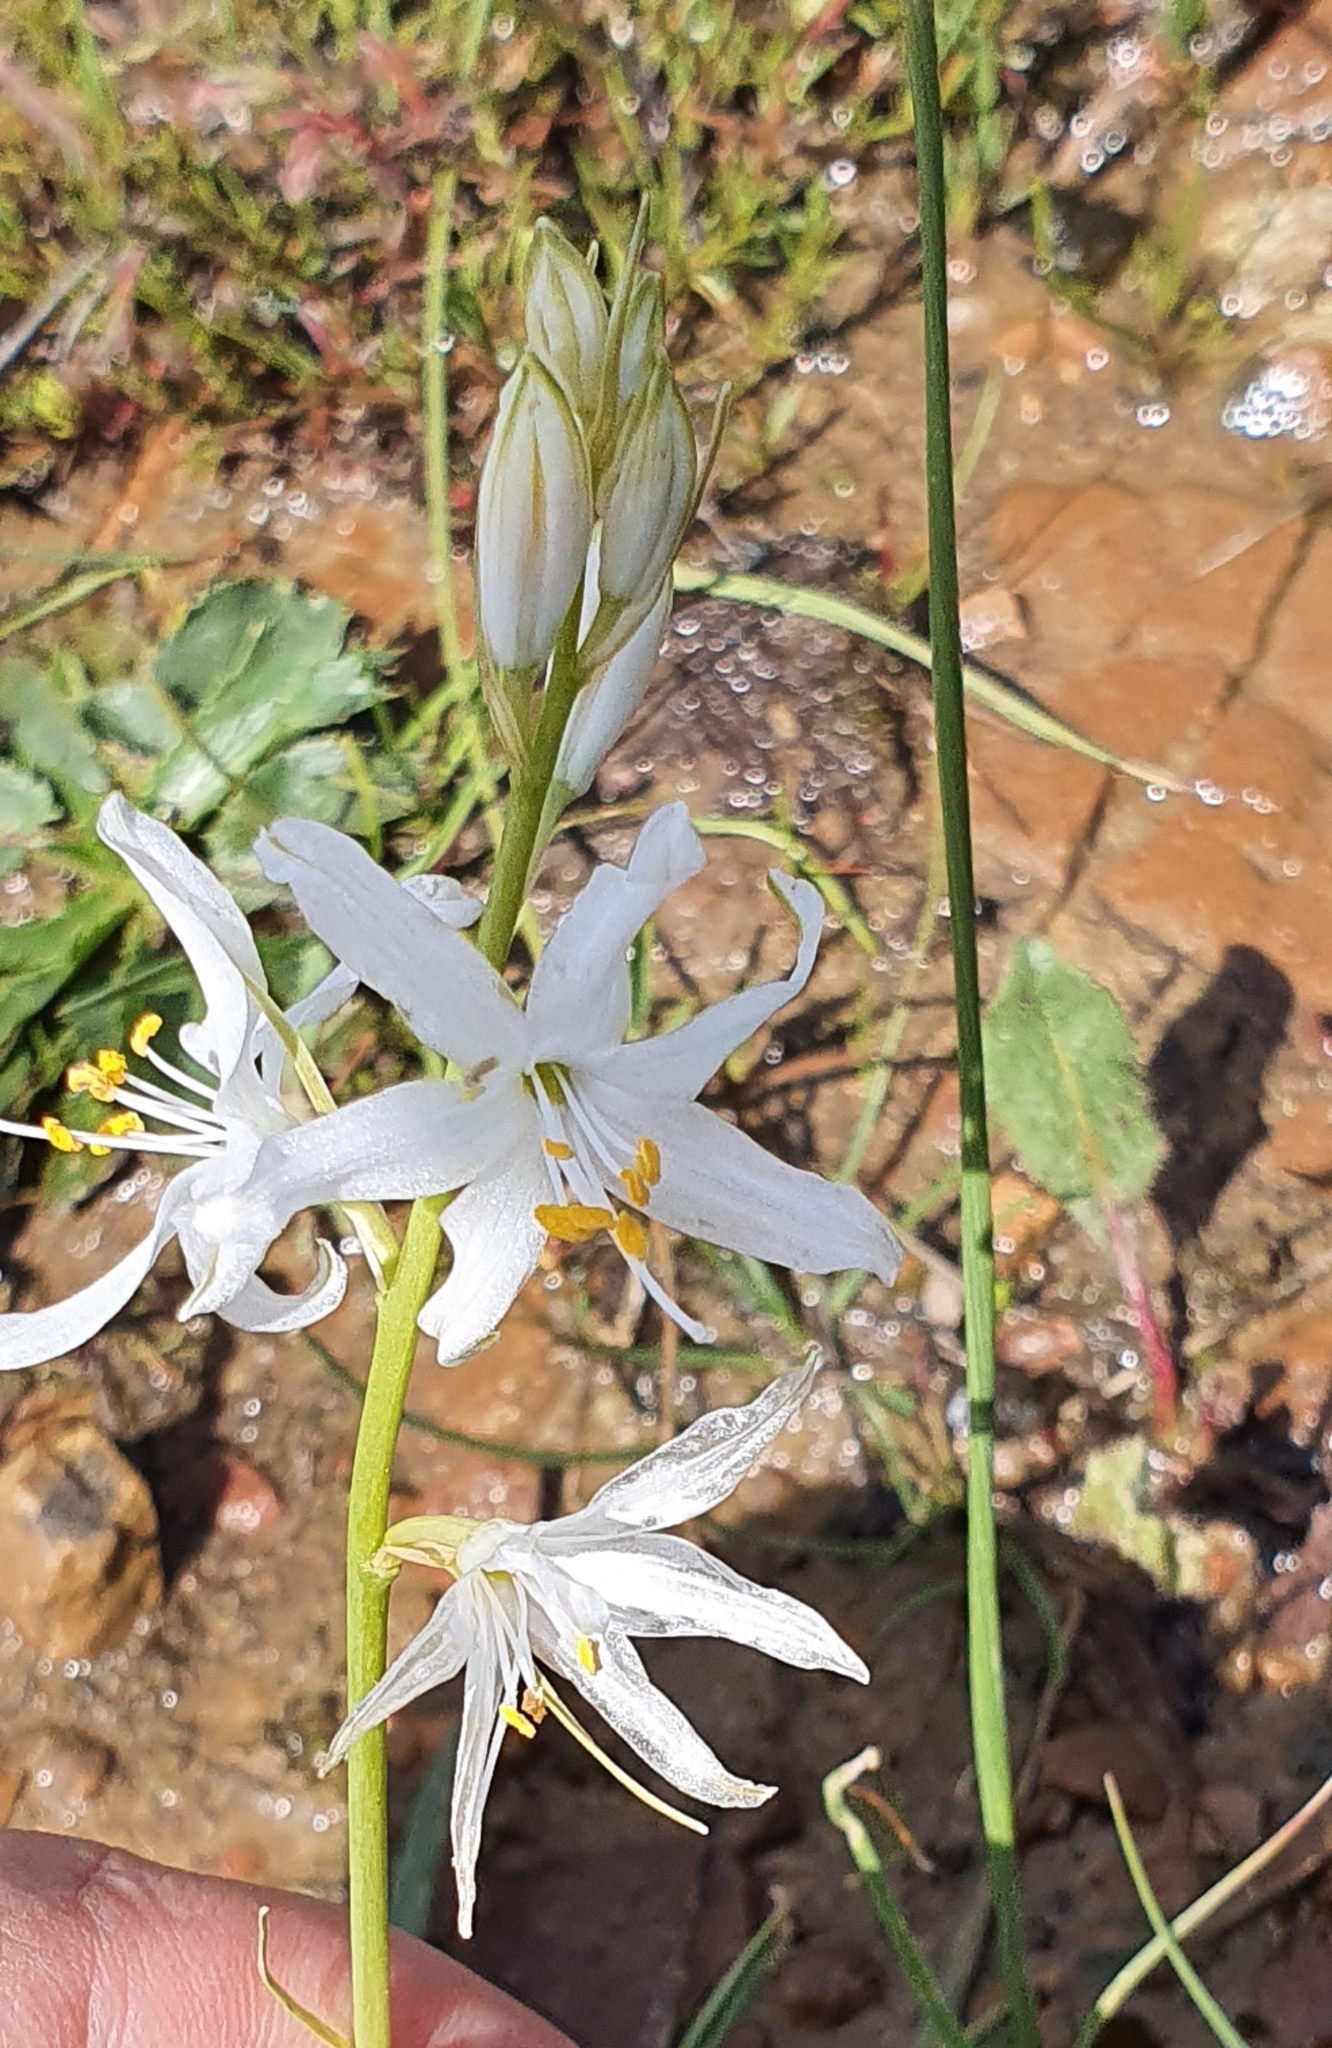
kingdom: Plantae
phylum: Tracheophyta
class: Liliopsida
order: Asparagales
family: Asparagaceae
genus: Anthericum
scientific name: Anthericum baeticum
